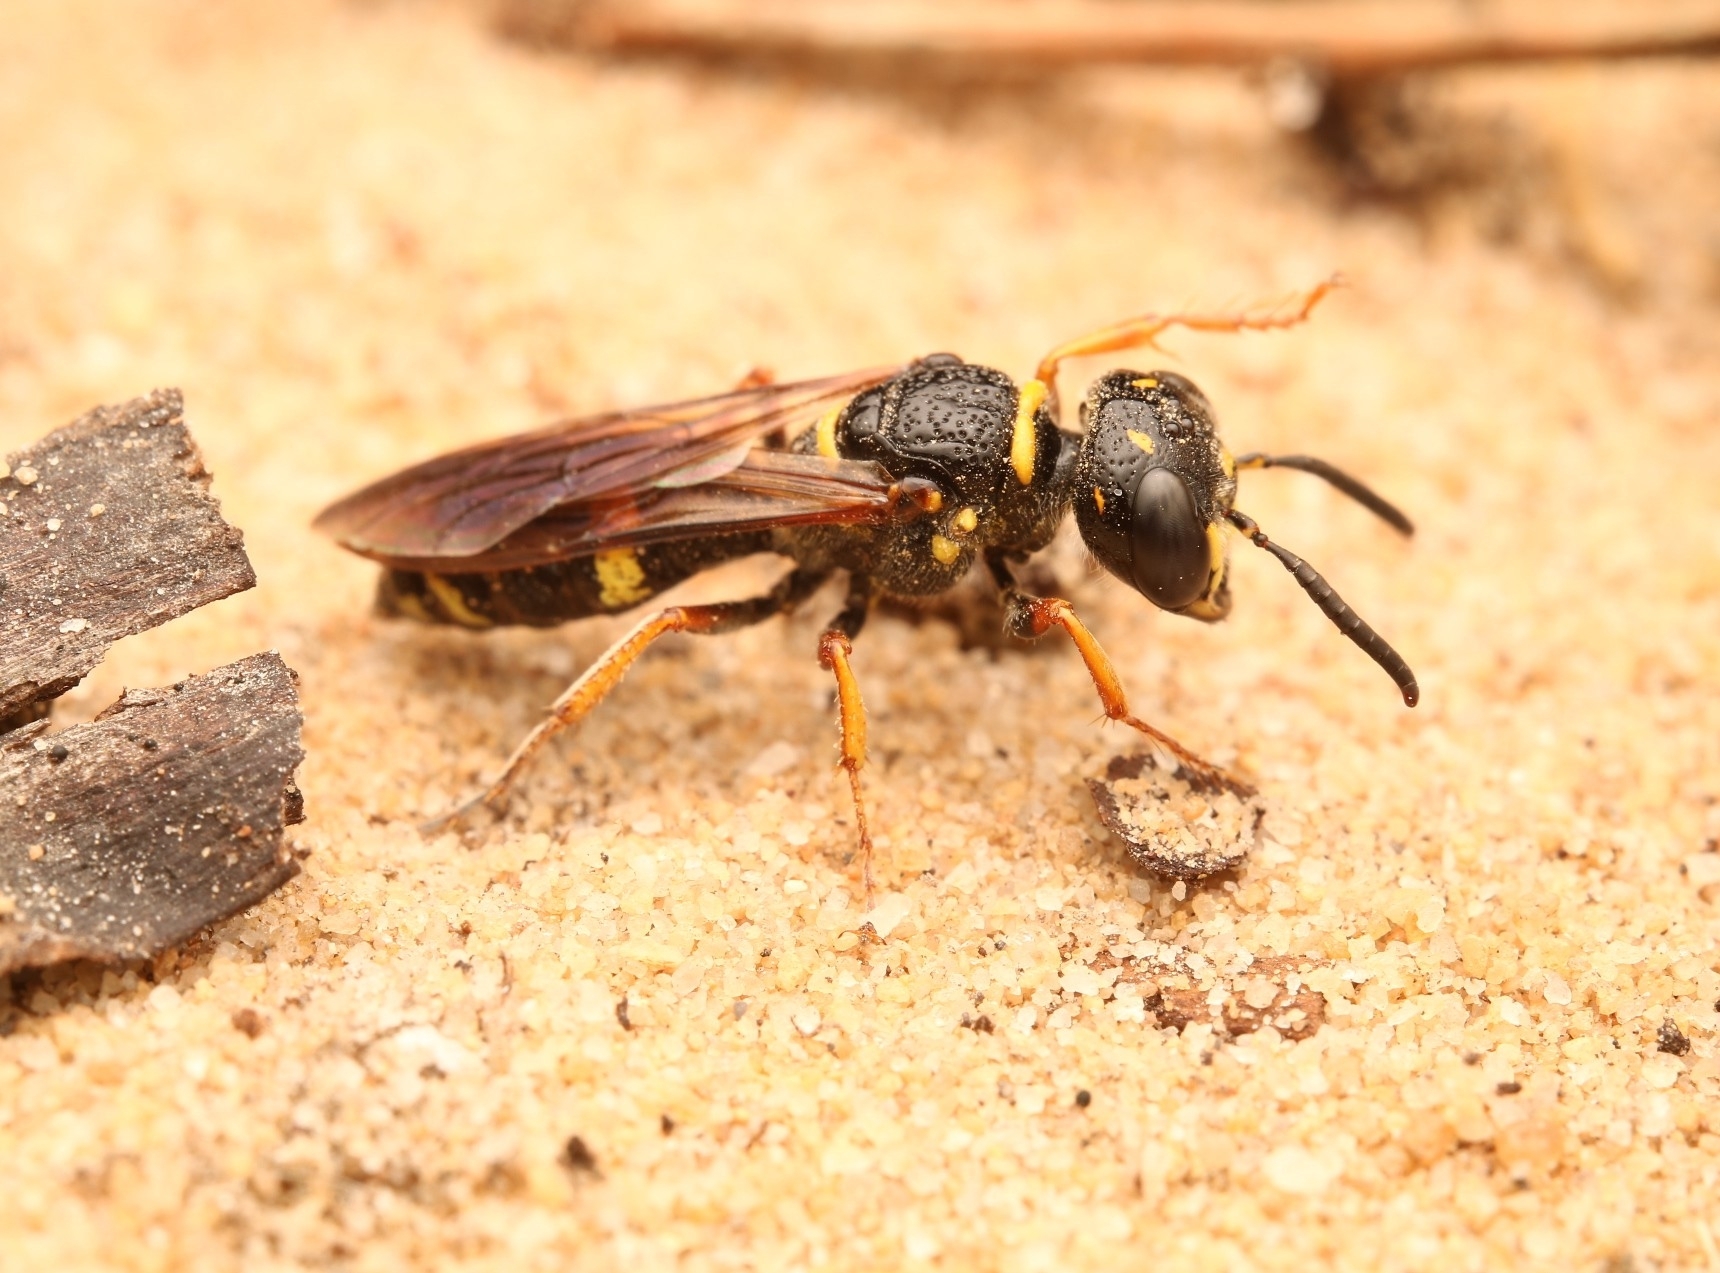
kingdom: Animalia
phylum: Arthropoda
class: Insecta
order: Hymenoptera
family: Crabronidae
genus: Philanthus
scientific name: Philanthus gibbosus
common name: Humped beewolf
